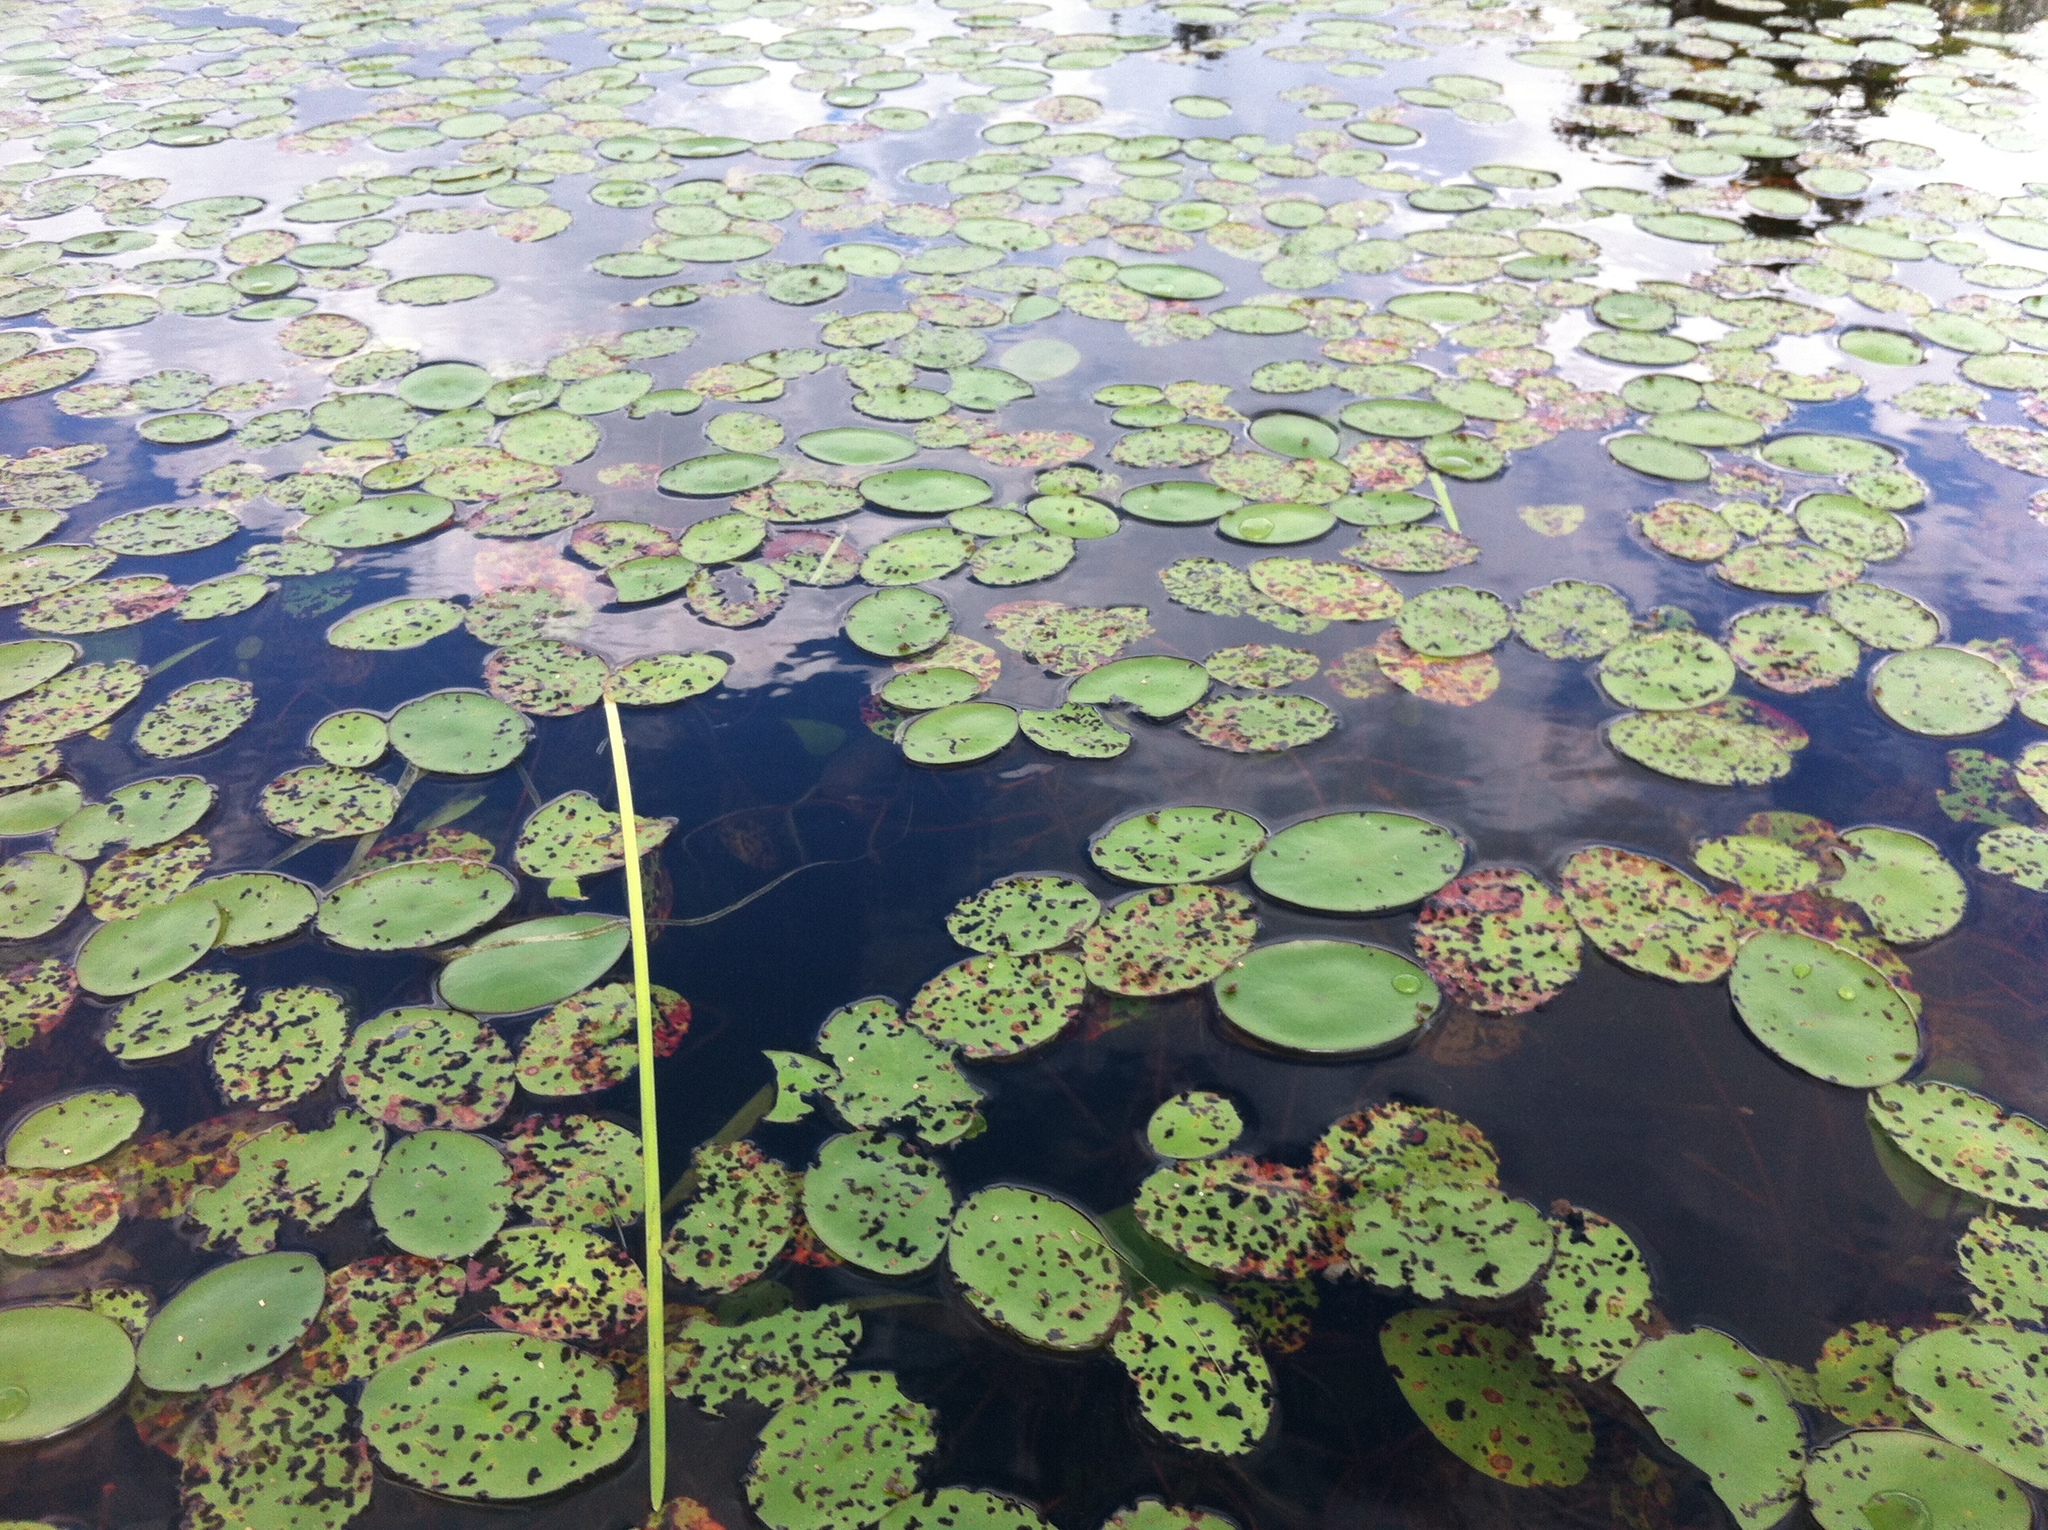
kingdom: Plantae
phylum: Tracheophyta
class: Magnoliopsida
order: Nymphaeales
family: Cabombaceae
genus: Brasenia
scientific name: Brasenia schreberi
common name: Water-shield
